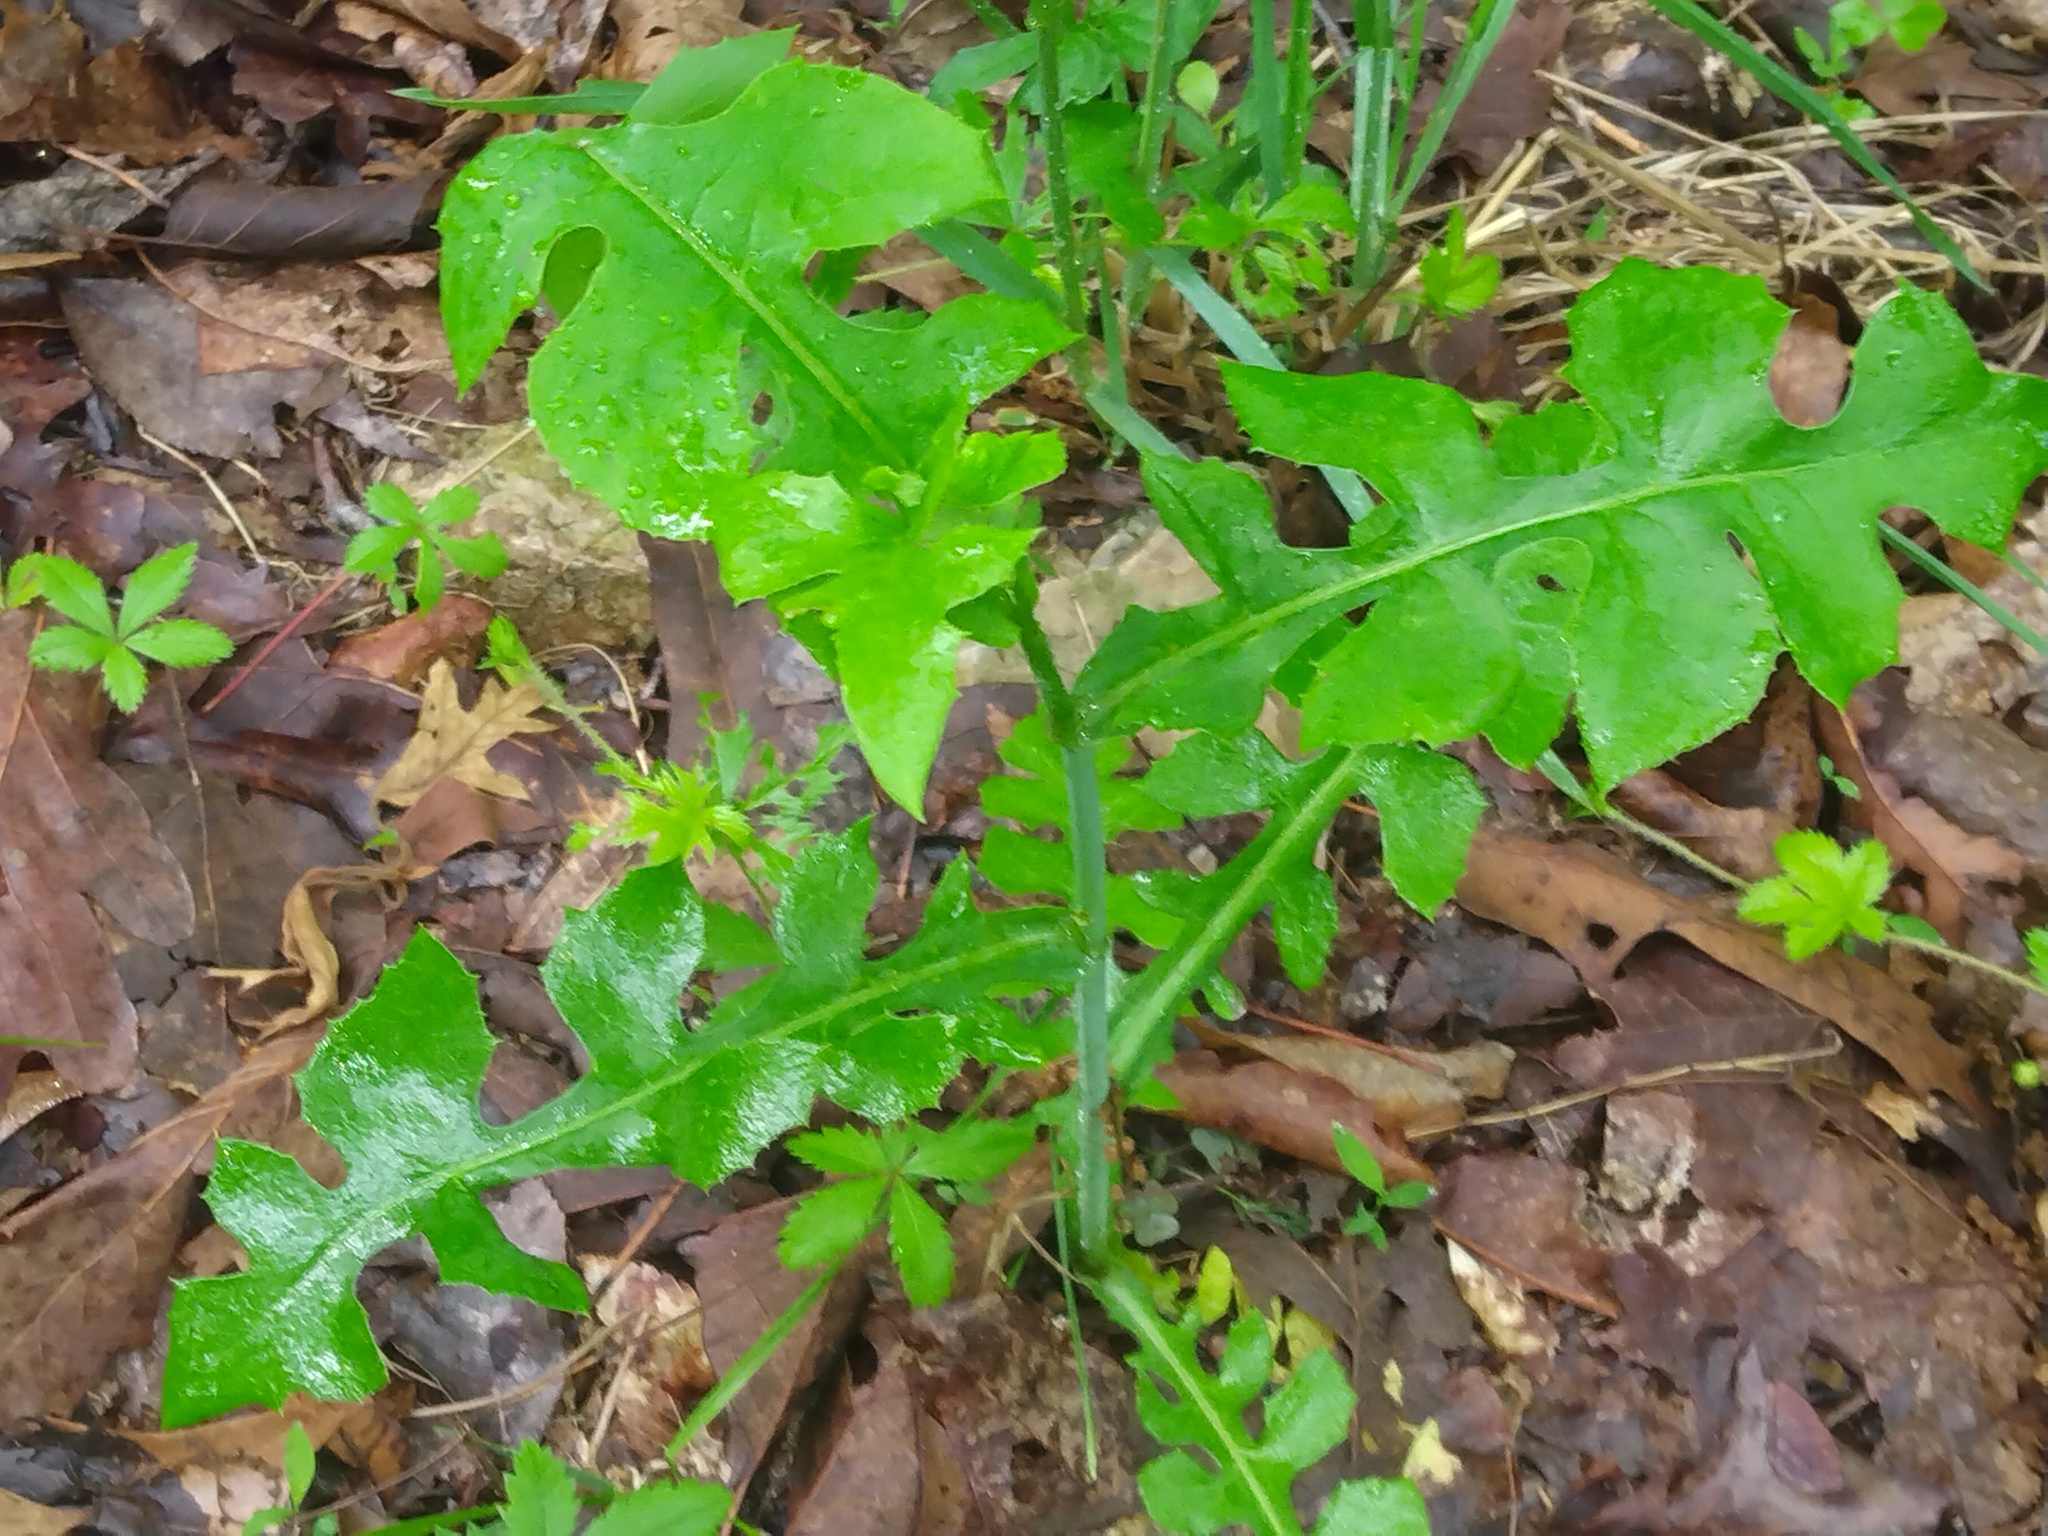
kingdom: Plantae
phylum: Tracheophyta
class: Magnoliopsida
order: Asterales
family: Asteraceae
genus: Lactuca
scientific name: Lactuca hirsuta
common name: Hairy lettuce
